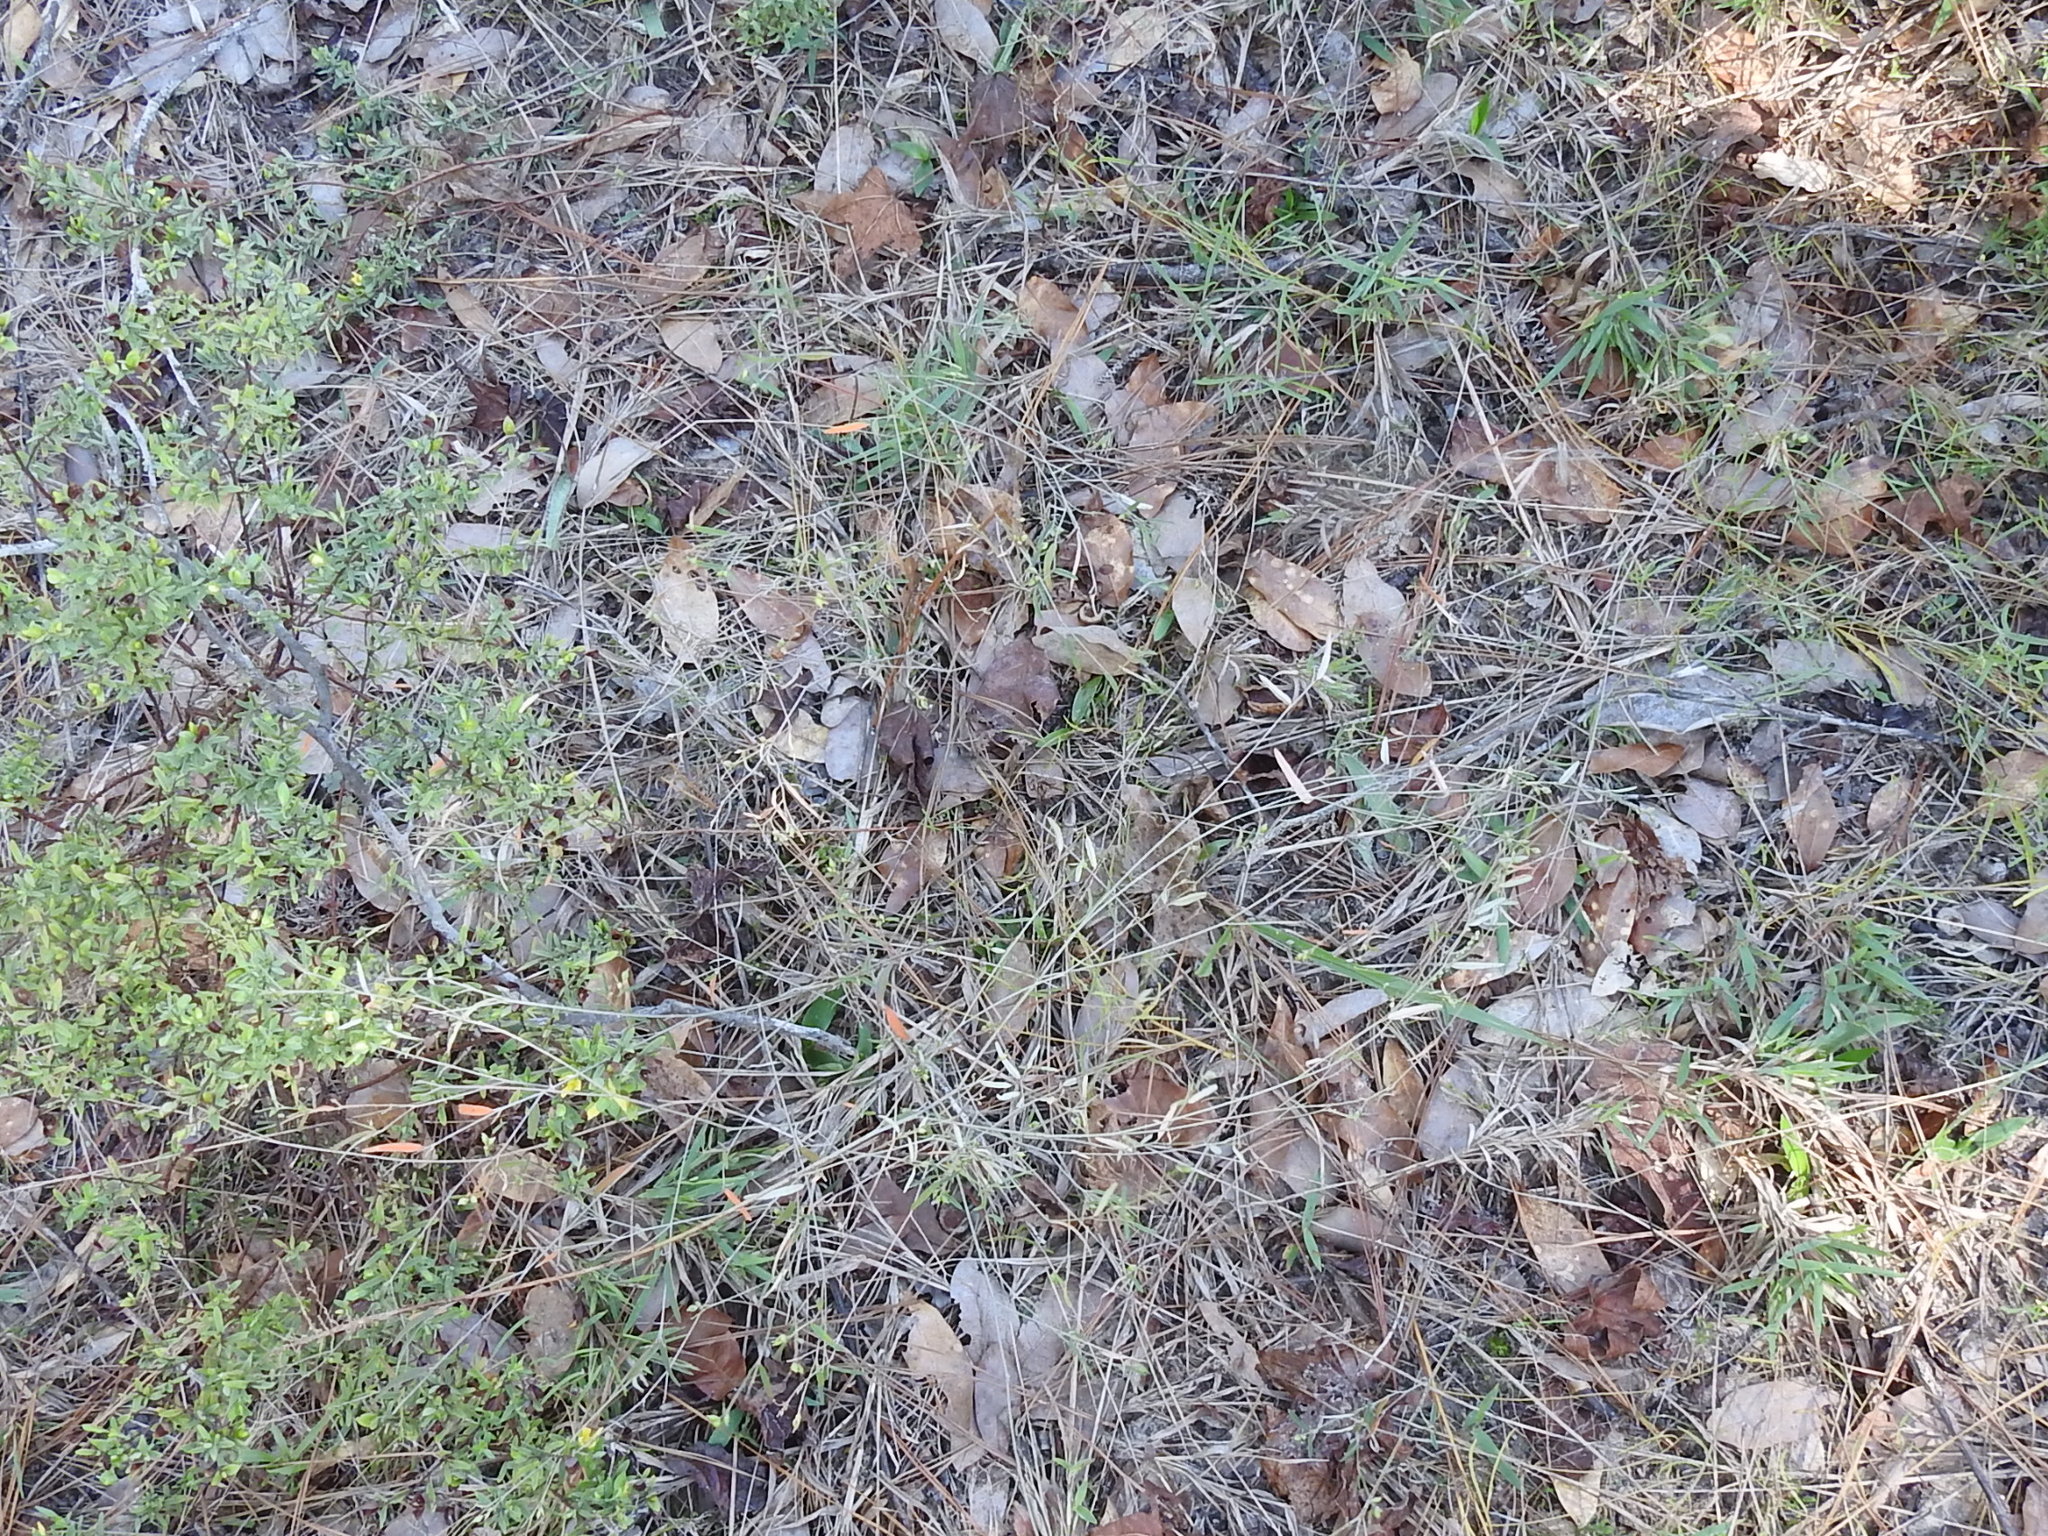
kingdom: Plantae
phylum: Tracheophyta
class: Magnoliopsida
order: Malpighiales
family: Euphorbiaceae
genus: Croton
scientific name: Croton michauxii
